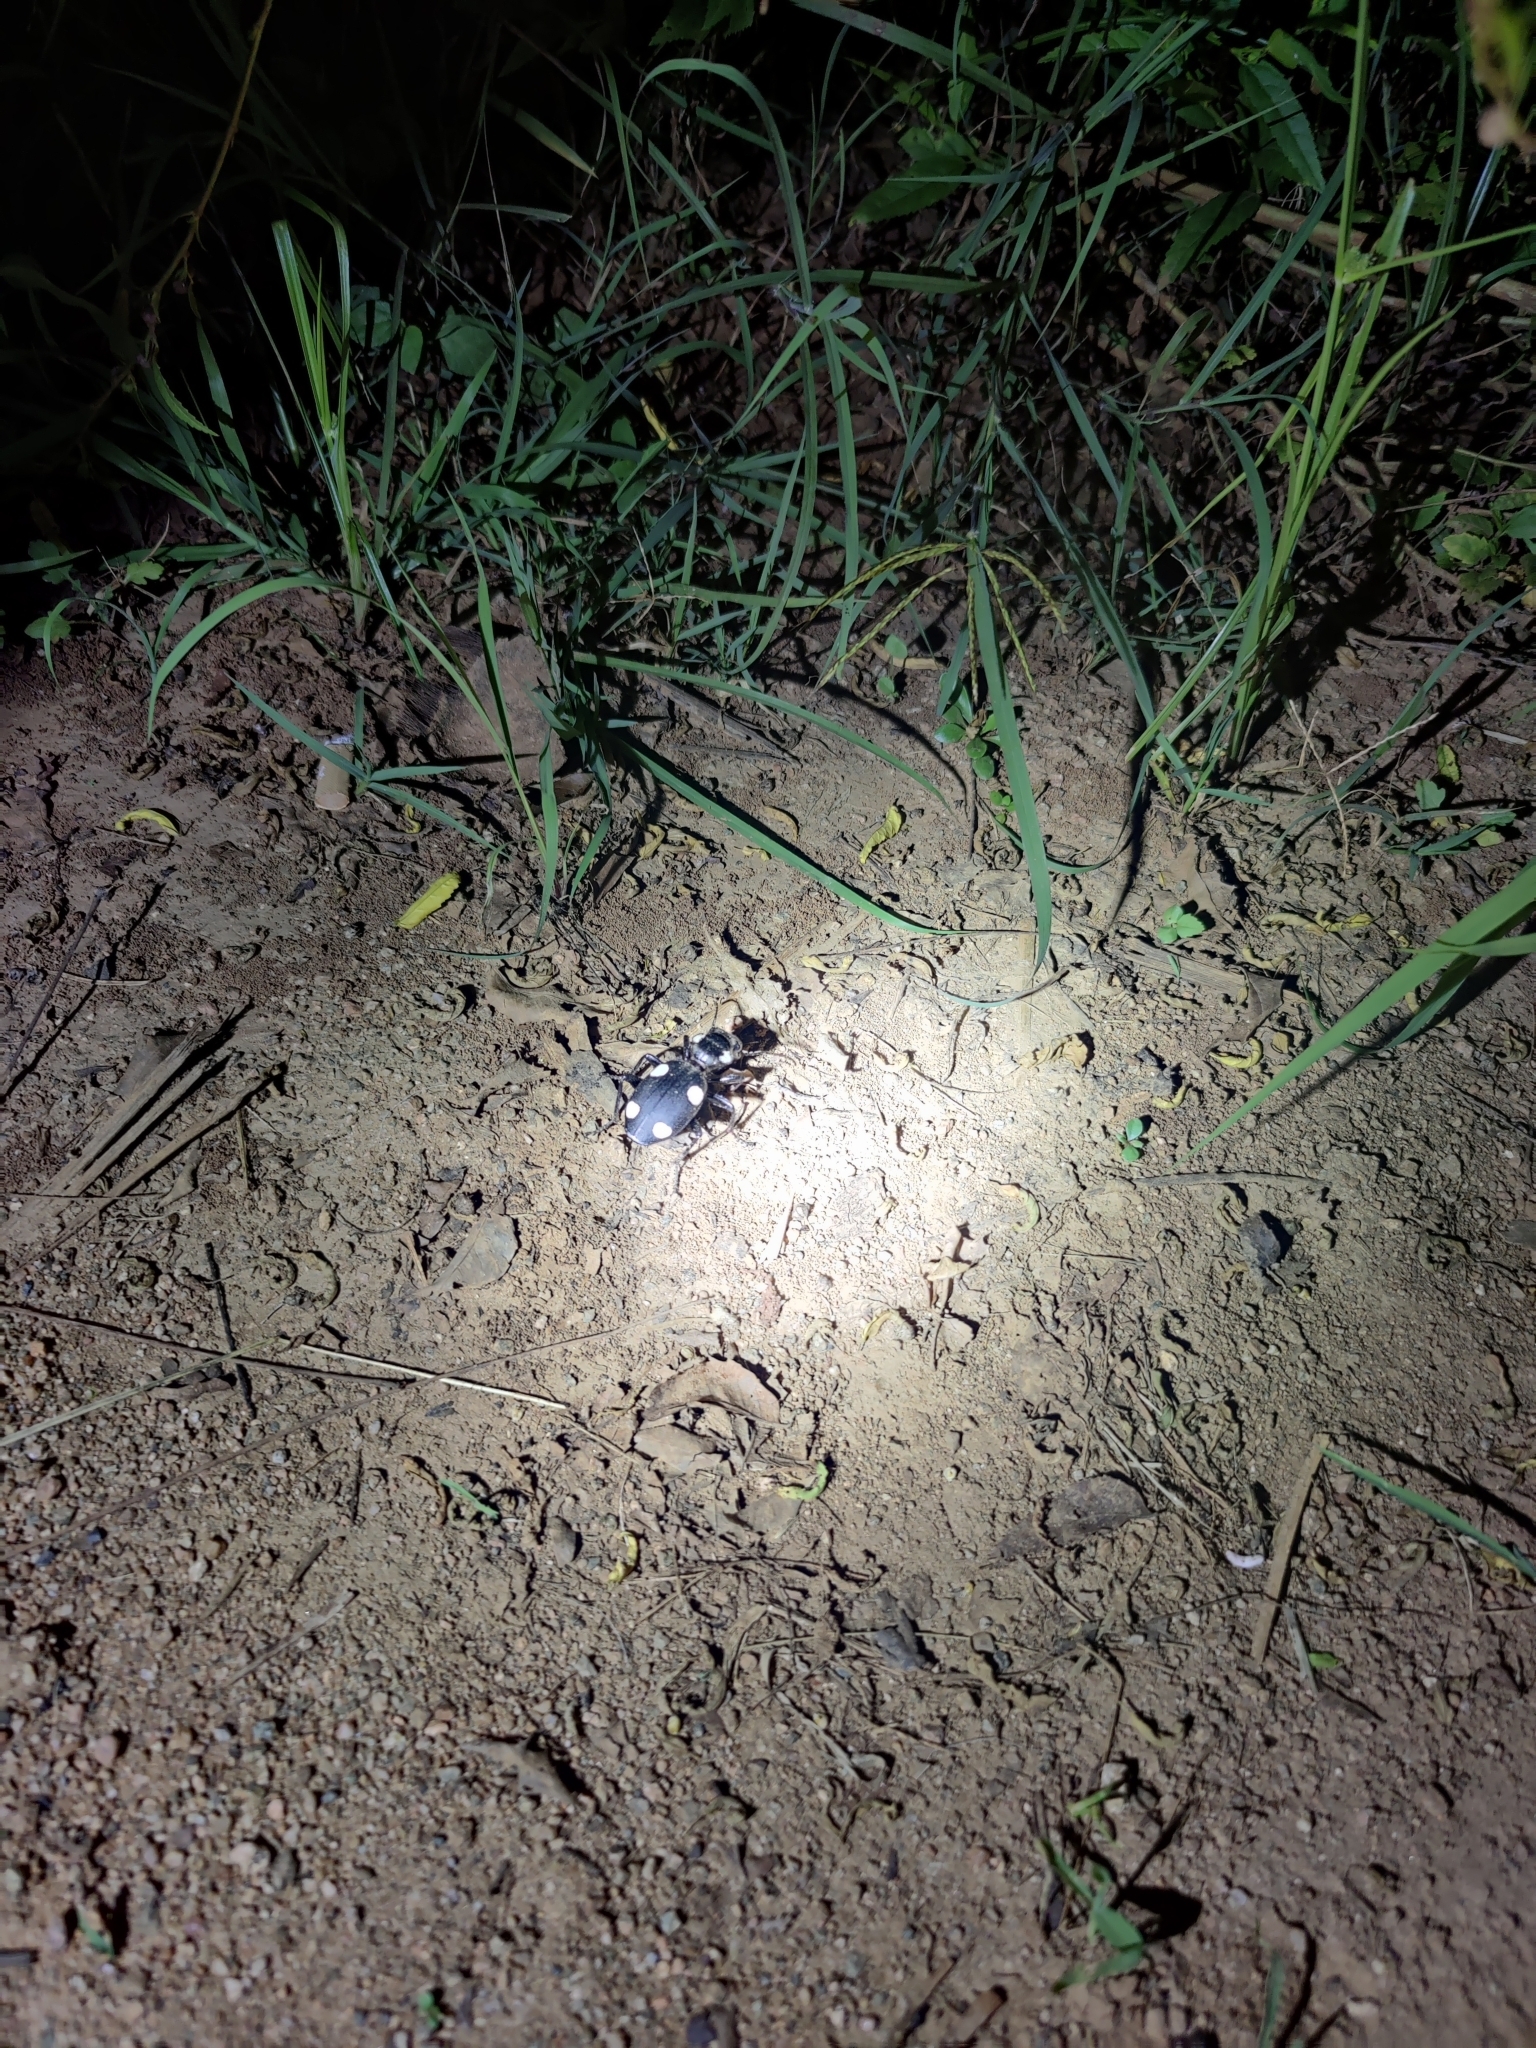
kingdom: Animalia
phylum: Arthropoda
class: Insecta
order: Coleoptera
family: Carabidae
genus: Anthia
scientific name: Anthia sexguttata
